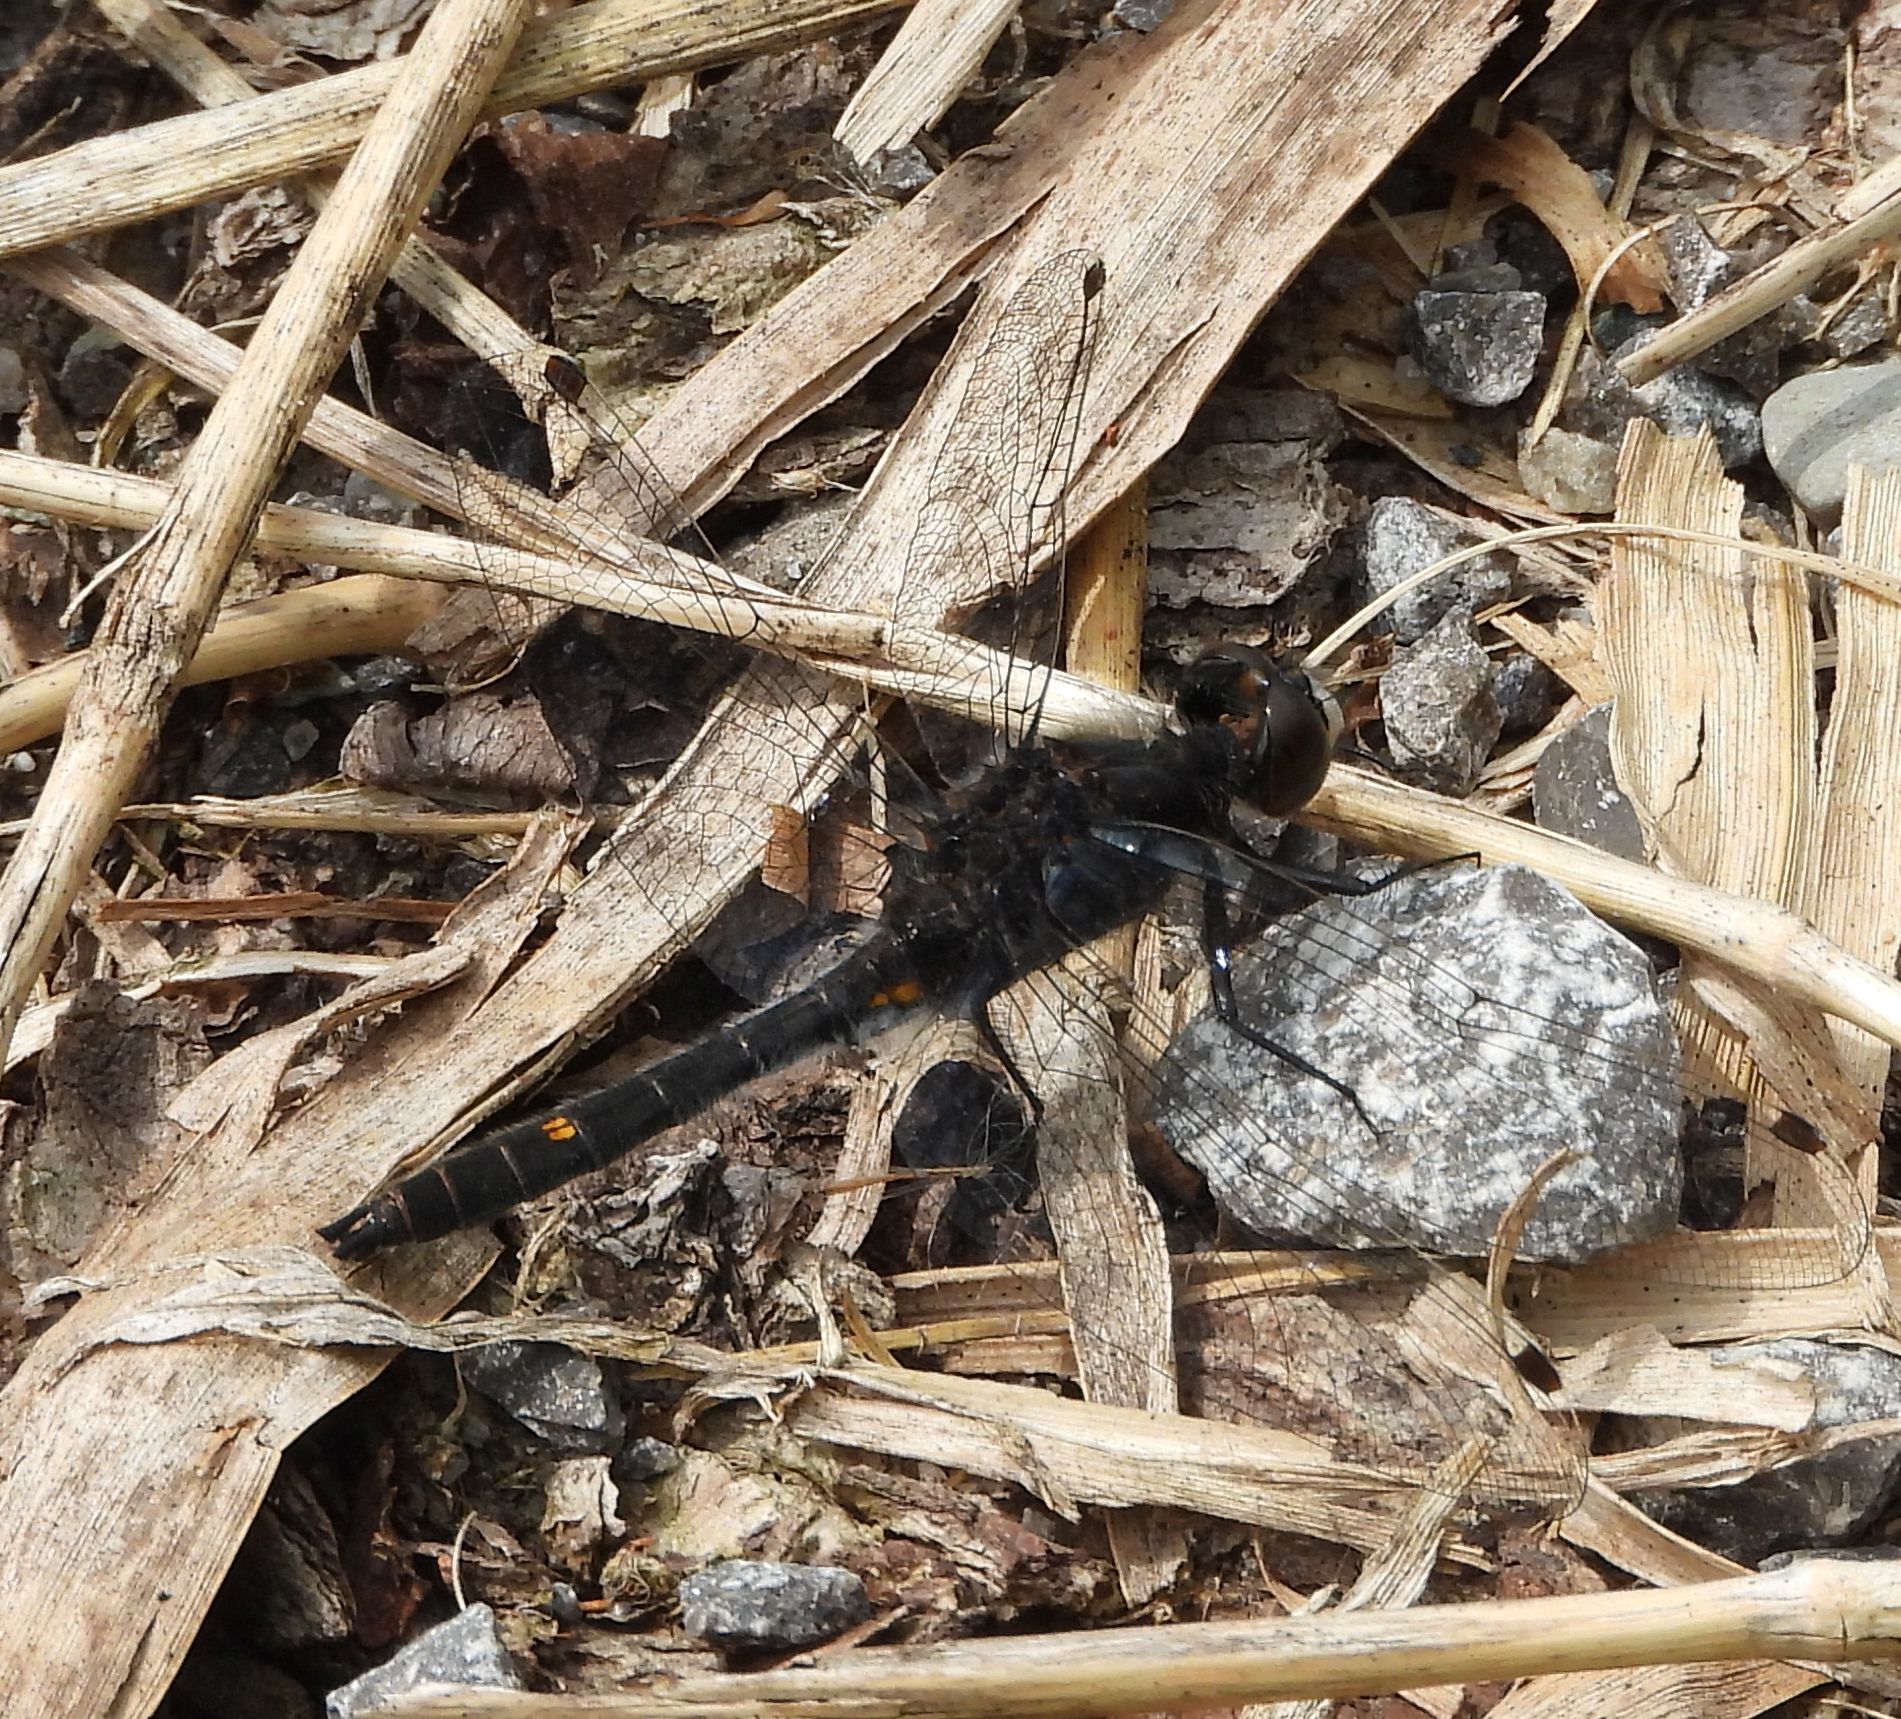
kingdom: Animalia
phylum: Arthropoda
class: Insecta
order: Odonata
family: Libellulidae
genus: Leucorrhinia
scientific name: Leucorrhinia intacta
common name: Dot-tailed whiteface
